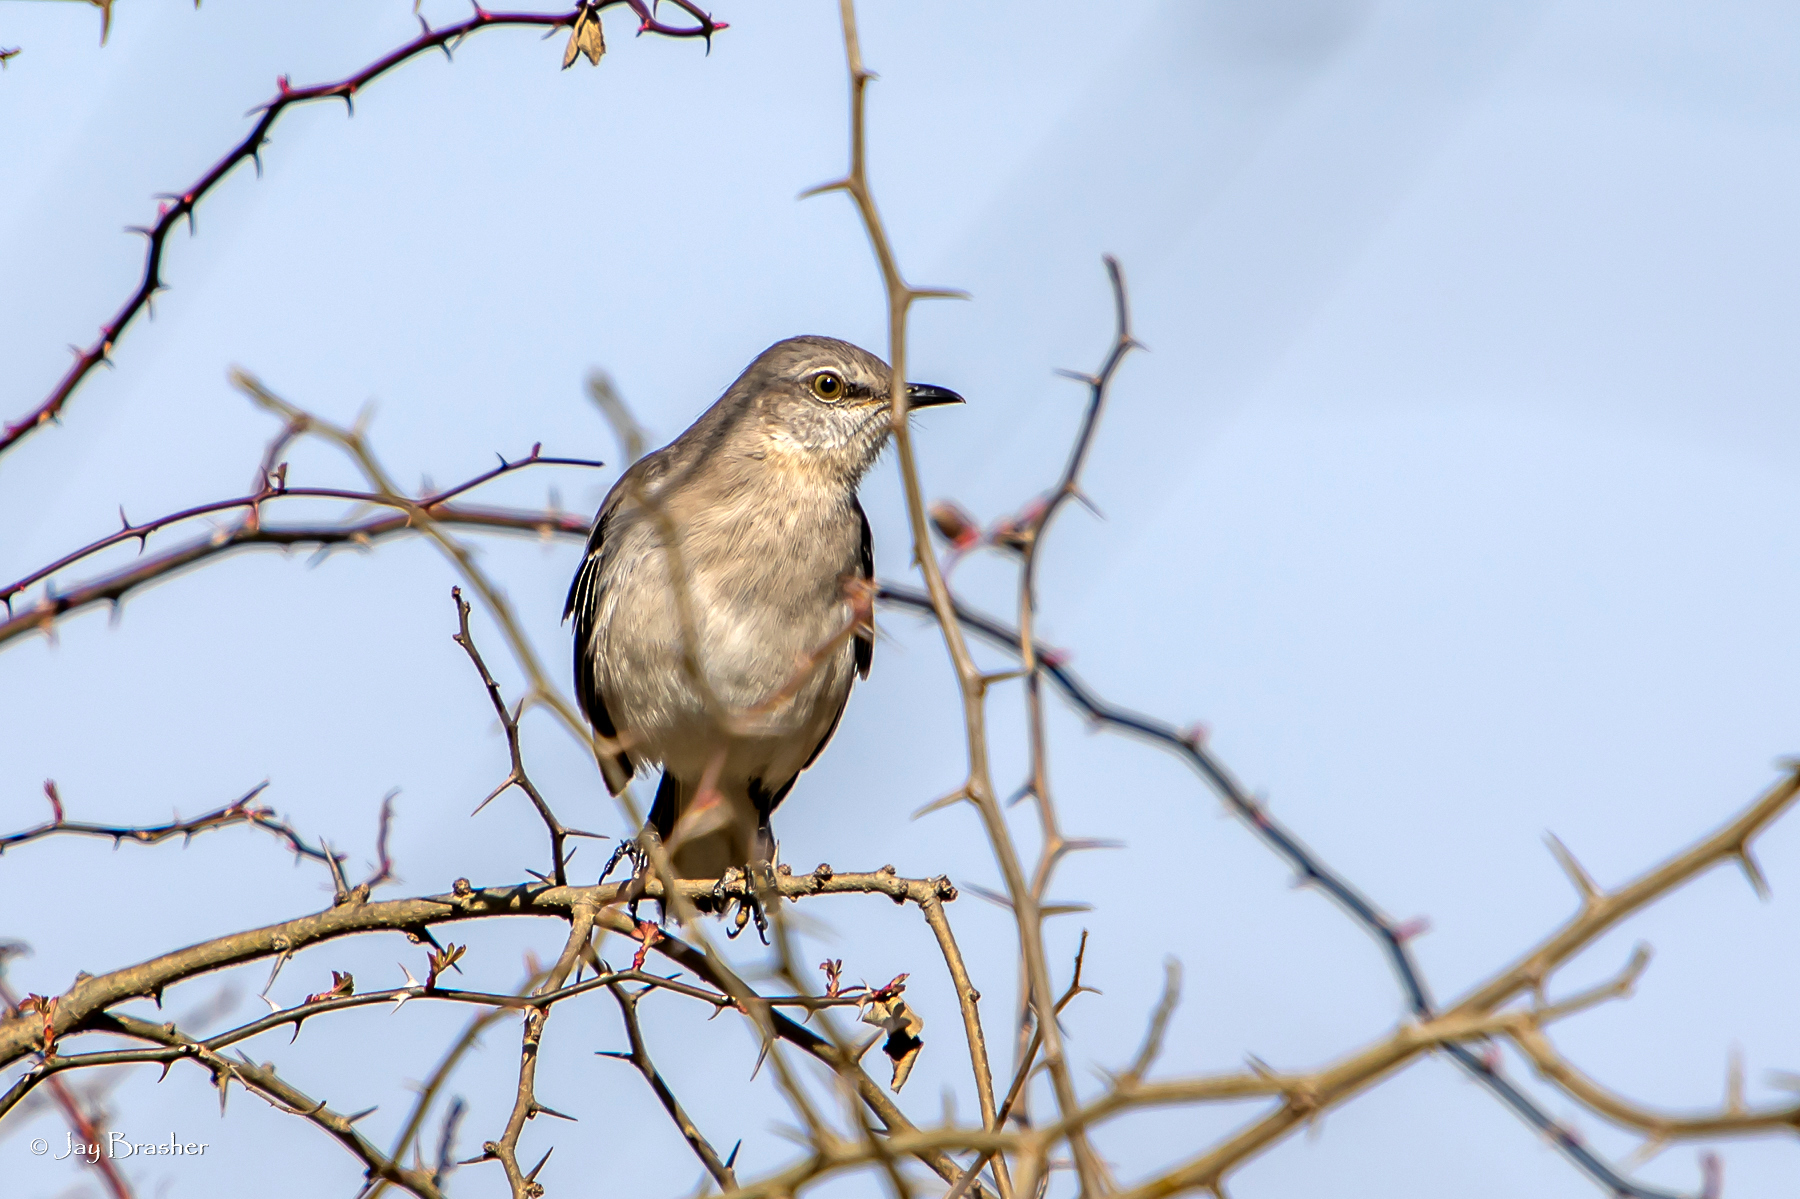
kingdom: Animalia
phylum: Chordata
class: Aves
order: Passeriformes
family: Mimidae
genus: Mimus
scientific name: Mimus polyglottos
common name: Northern mockingbird
